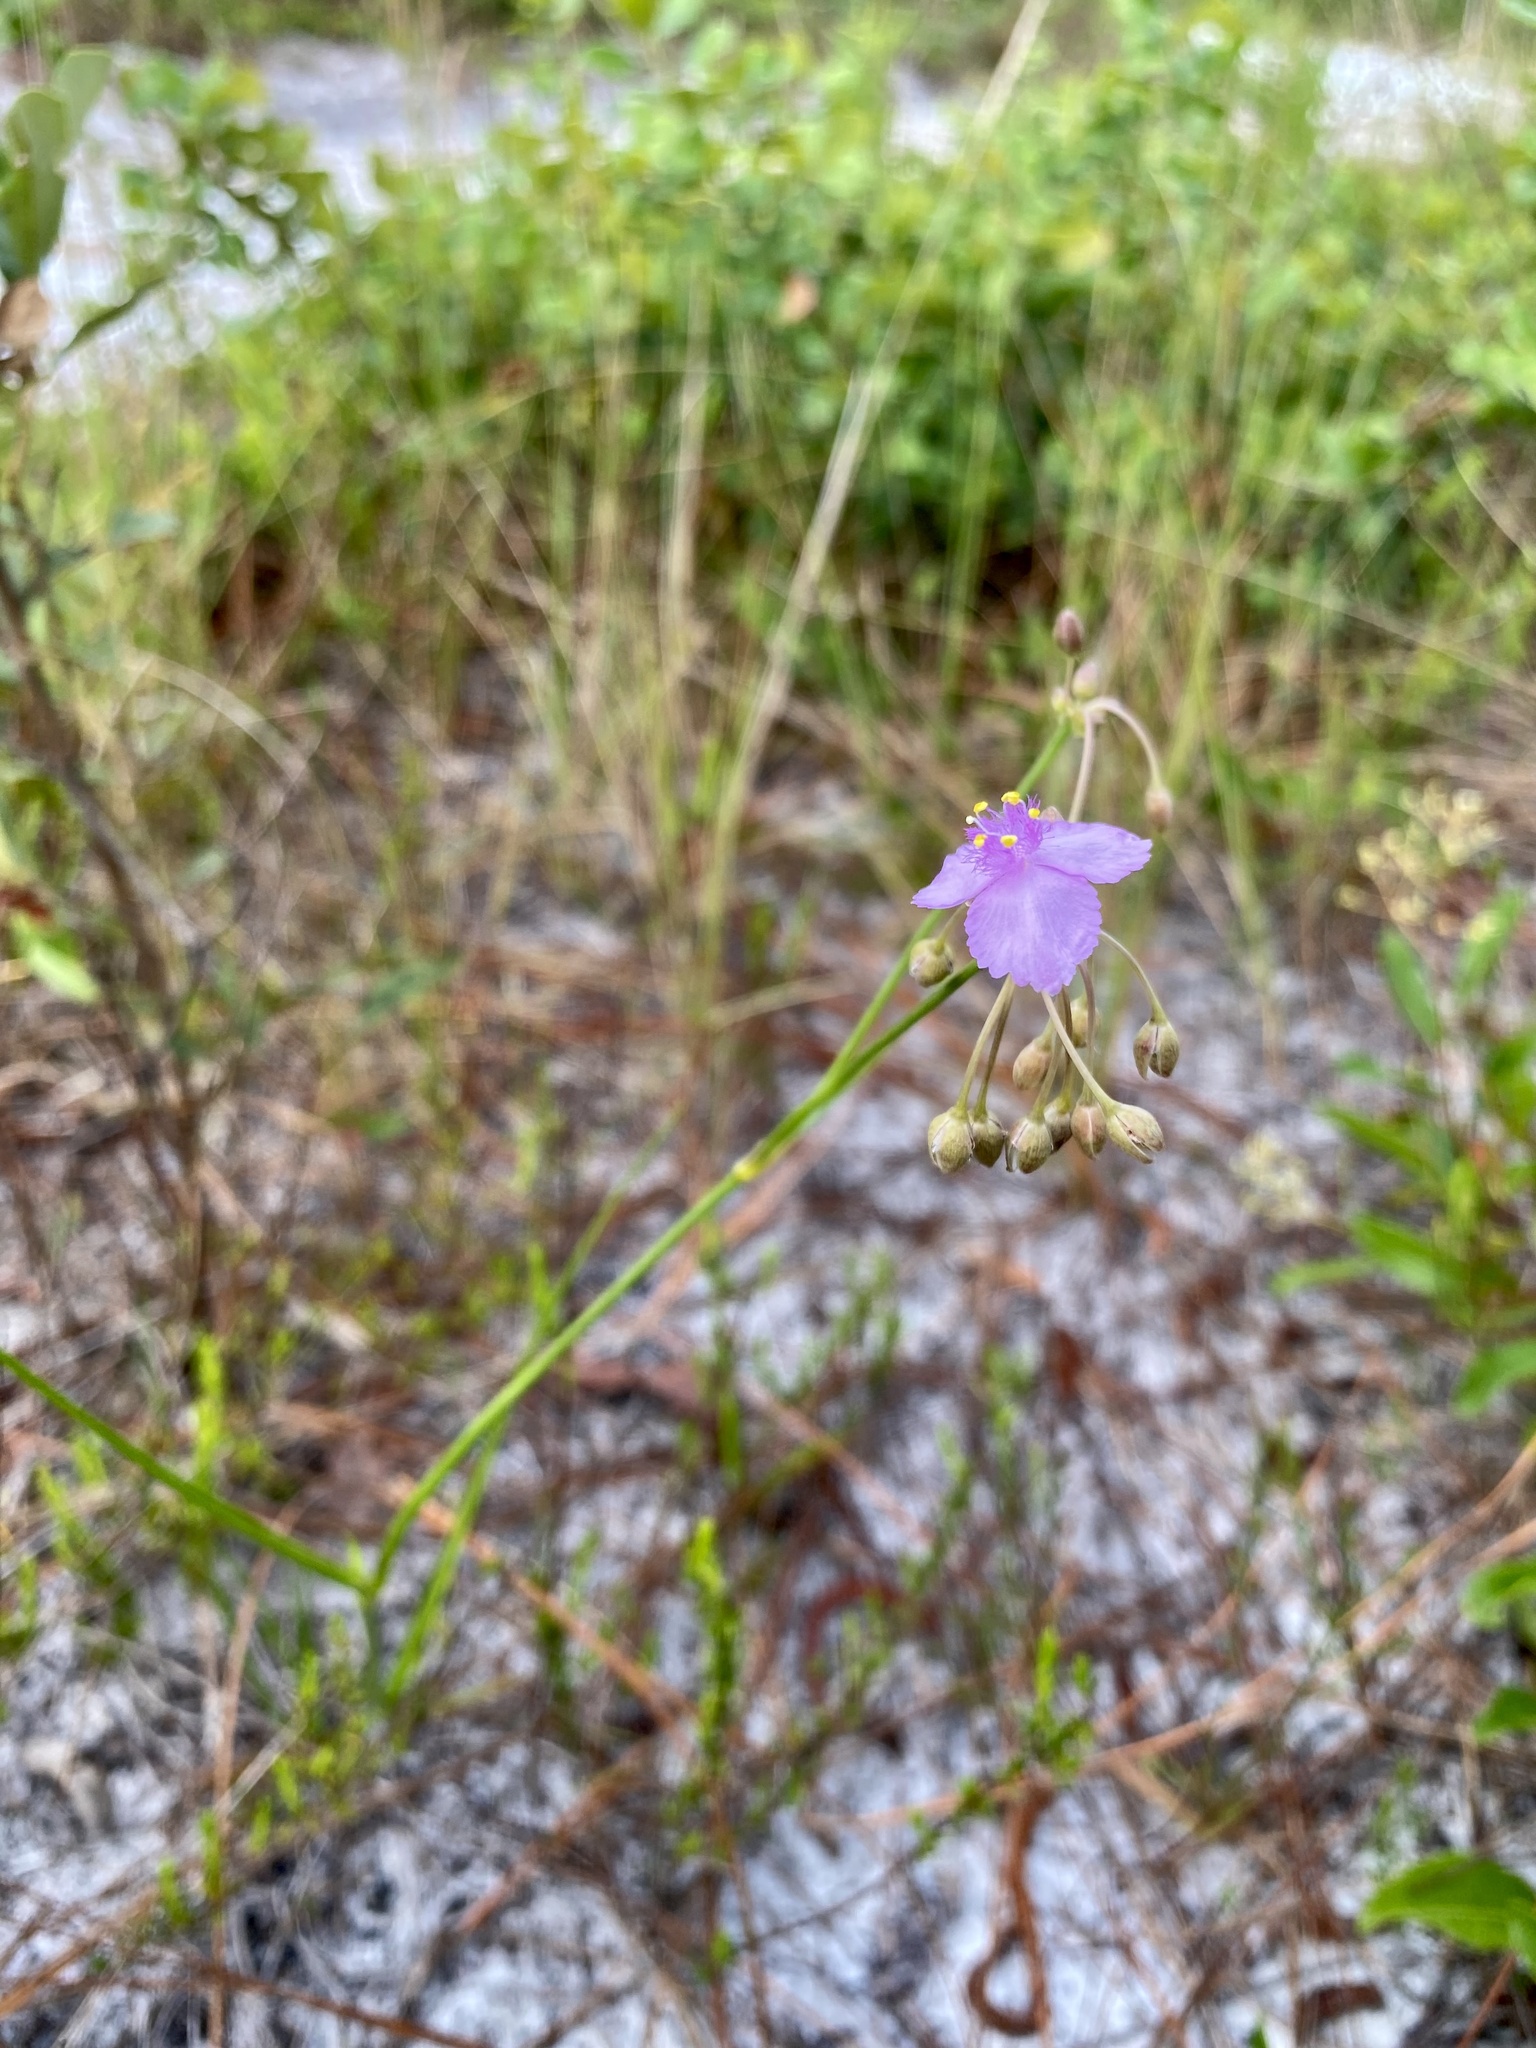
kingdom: Plantae
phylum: Tracheophyta
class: Liliopsida
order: Commelinales
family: Commelinaceae
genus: Callisia
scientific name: Callisia ornata
